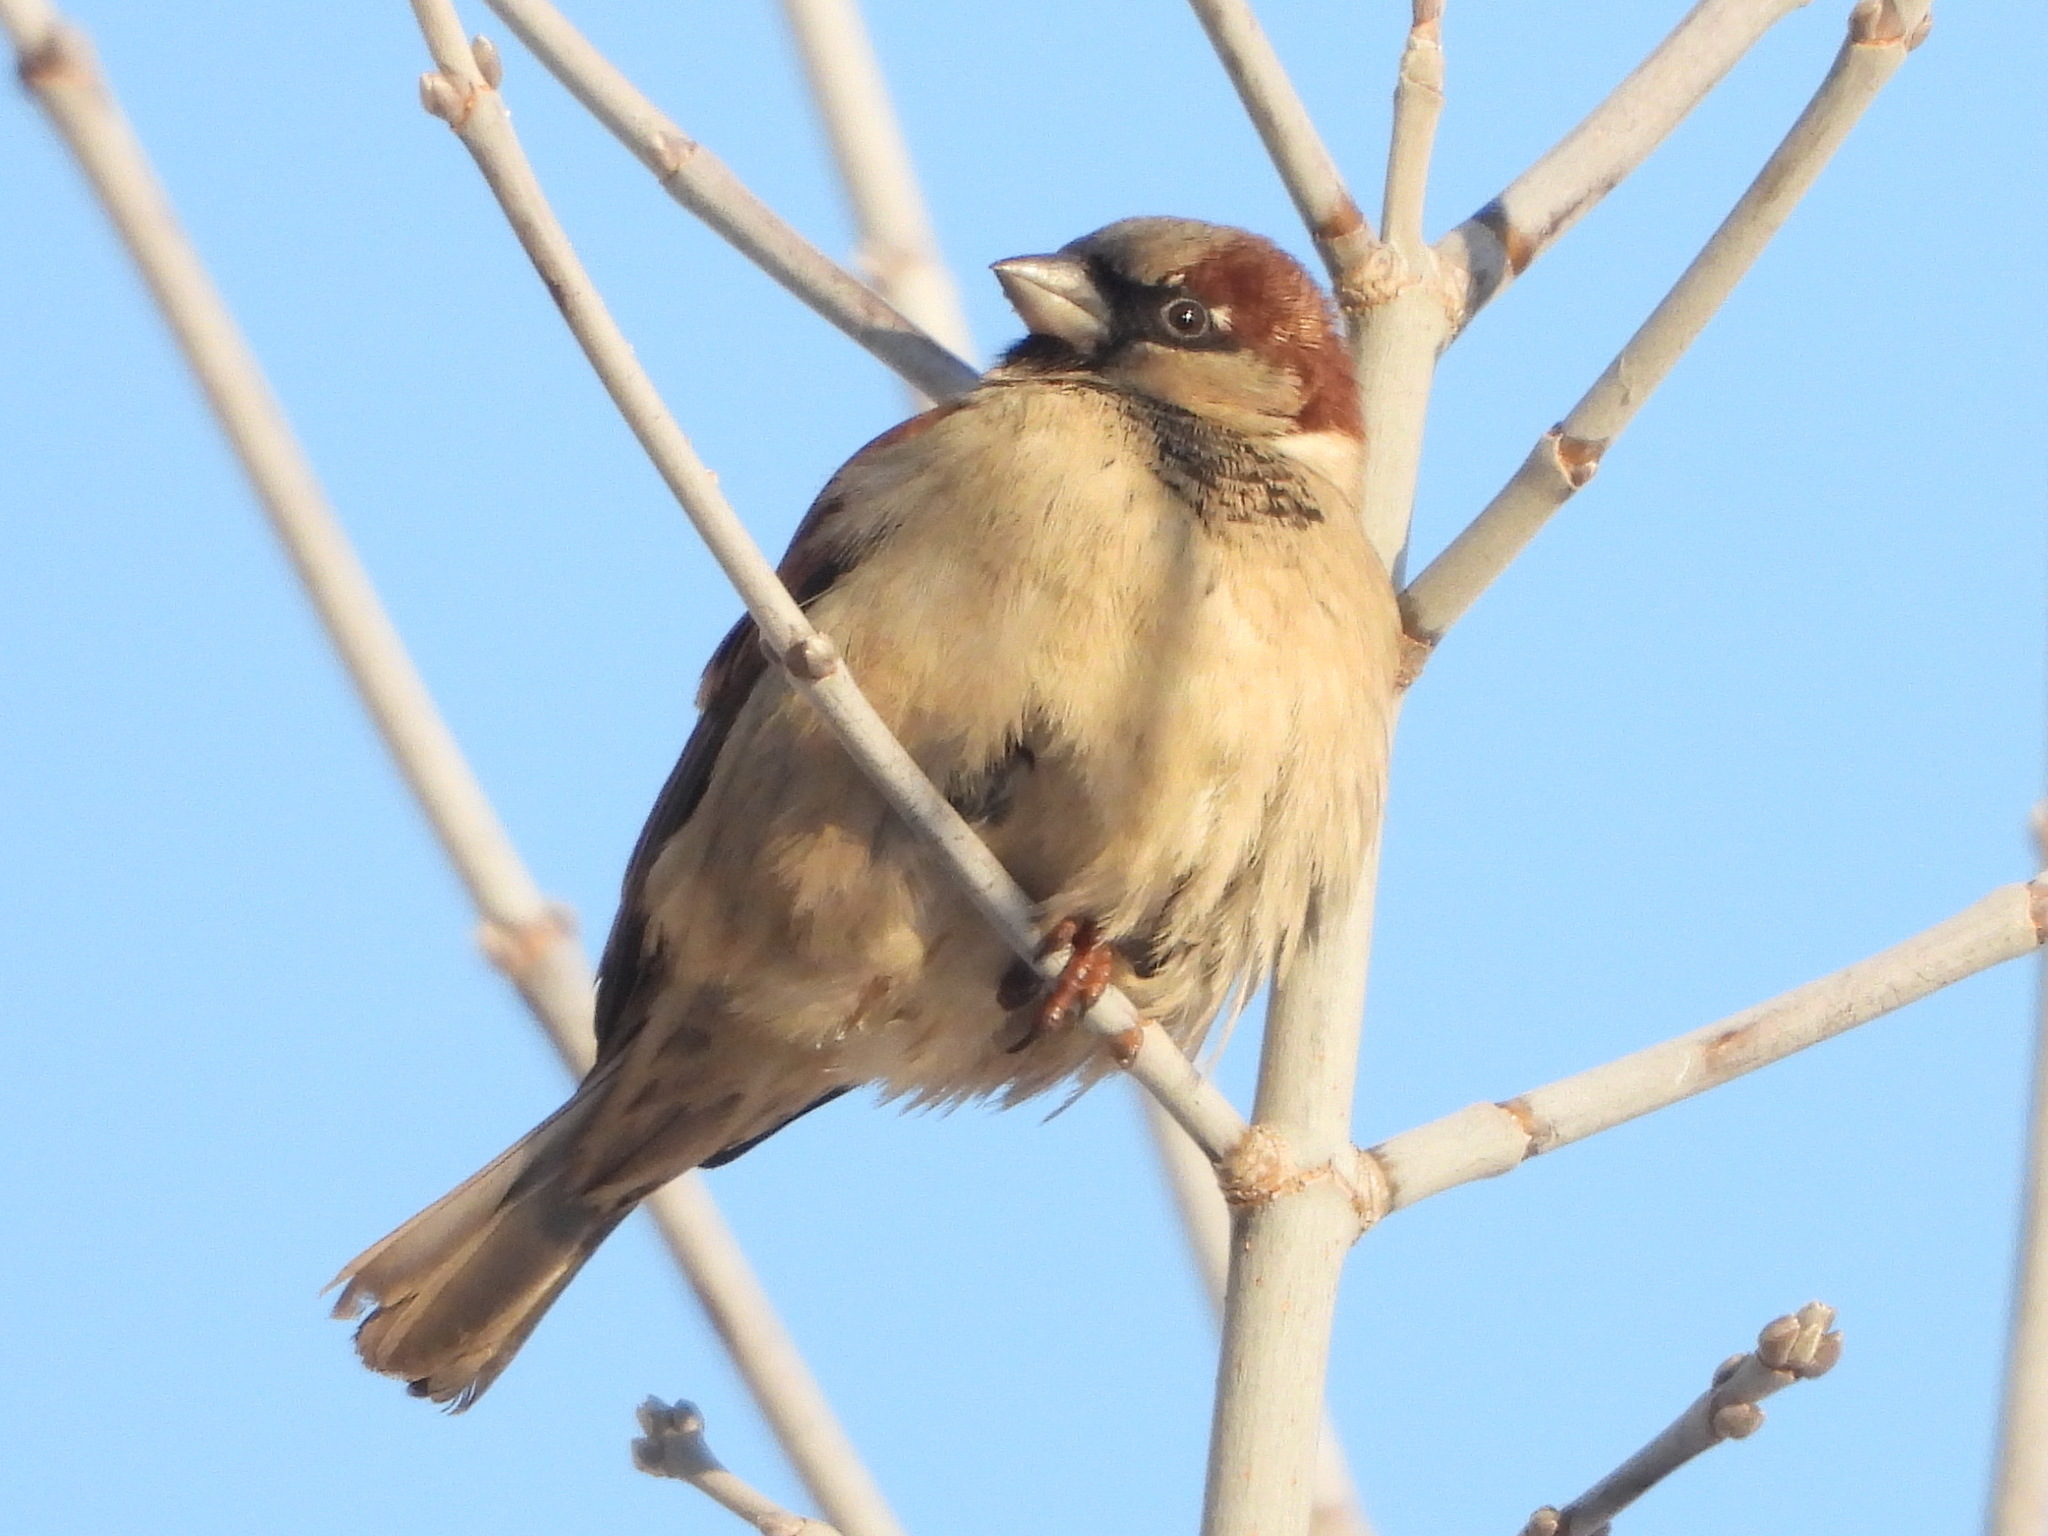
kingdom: Animalia
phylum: Chordata
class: Aves
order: Passeriformes
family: Passeridae
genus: Passer
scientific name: Passer domesticus
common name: House sparrow
